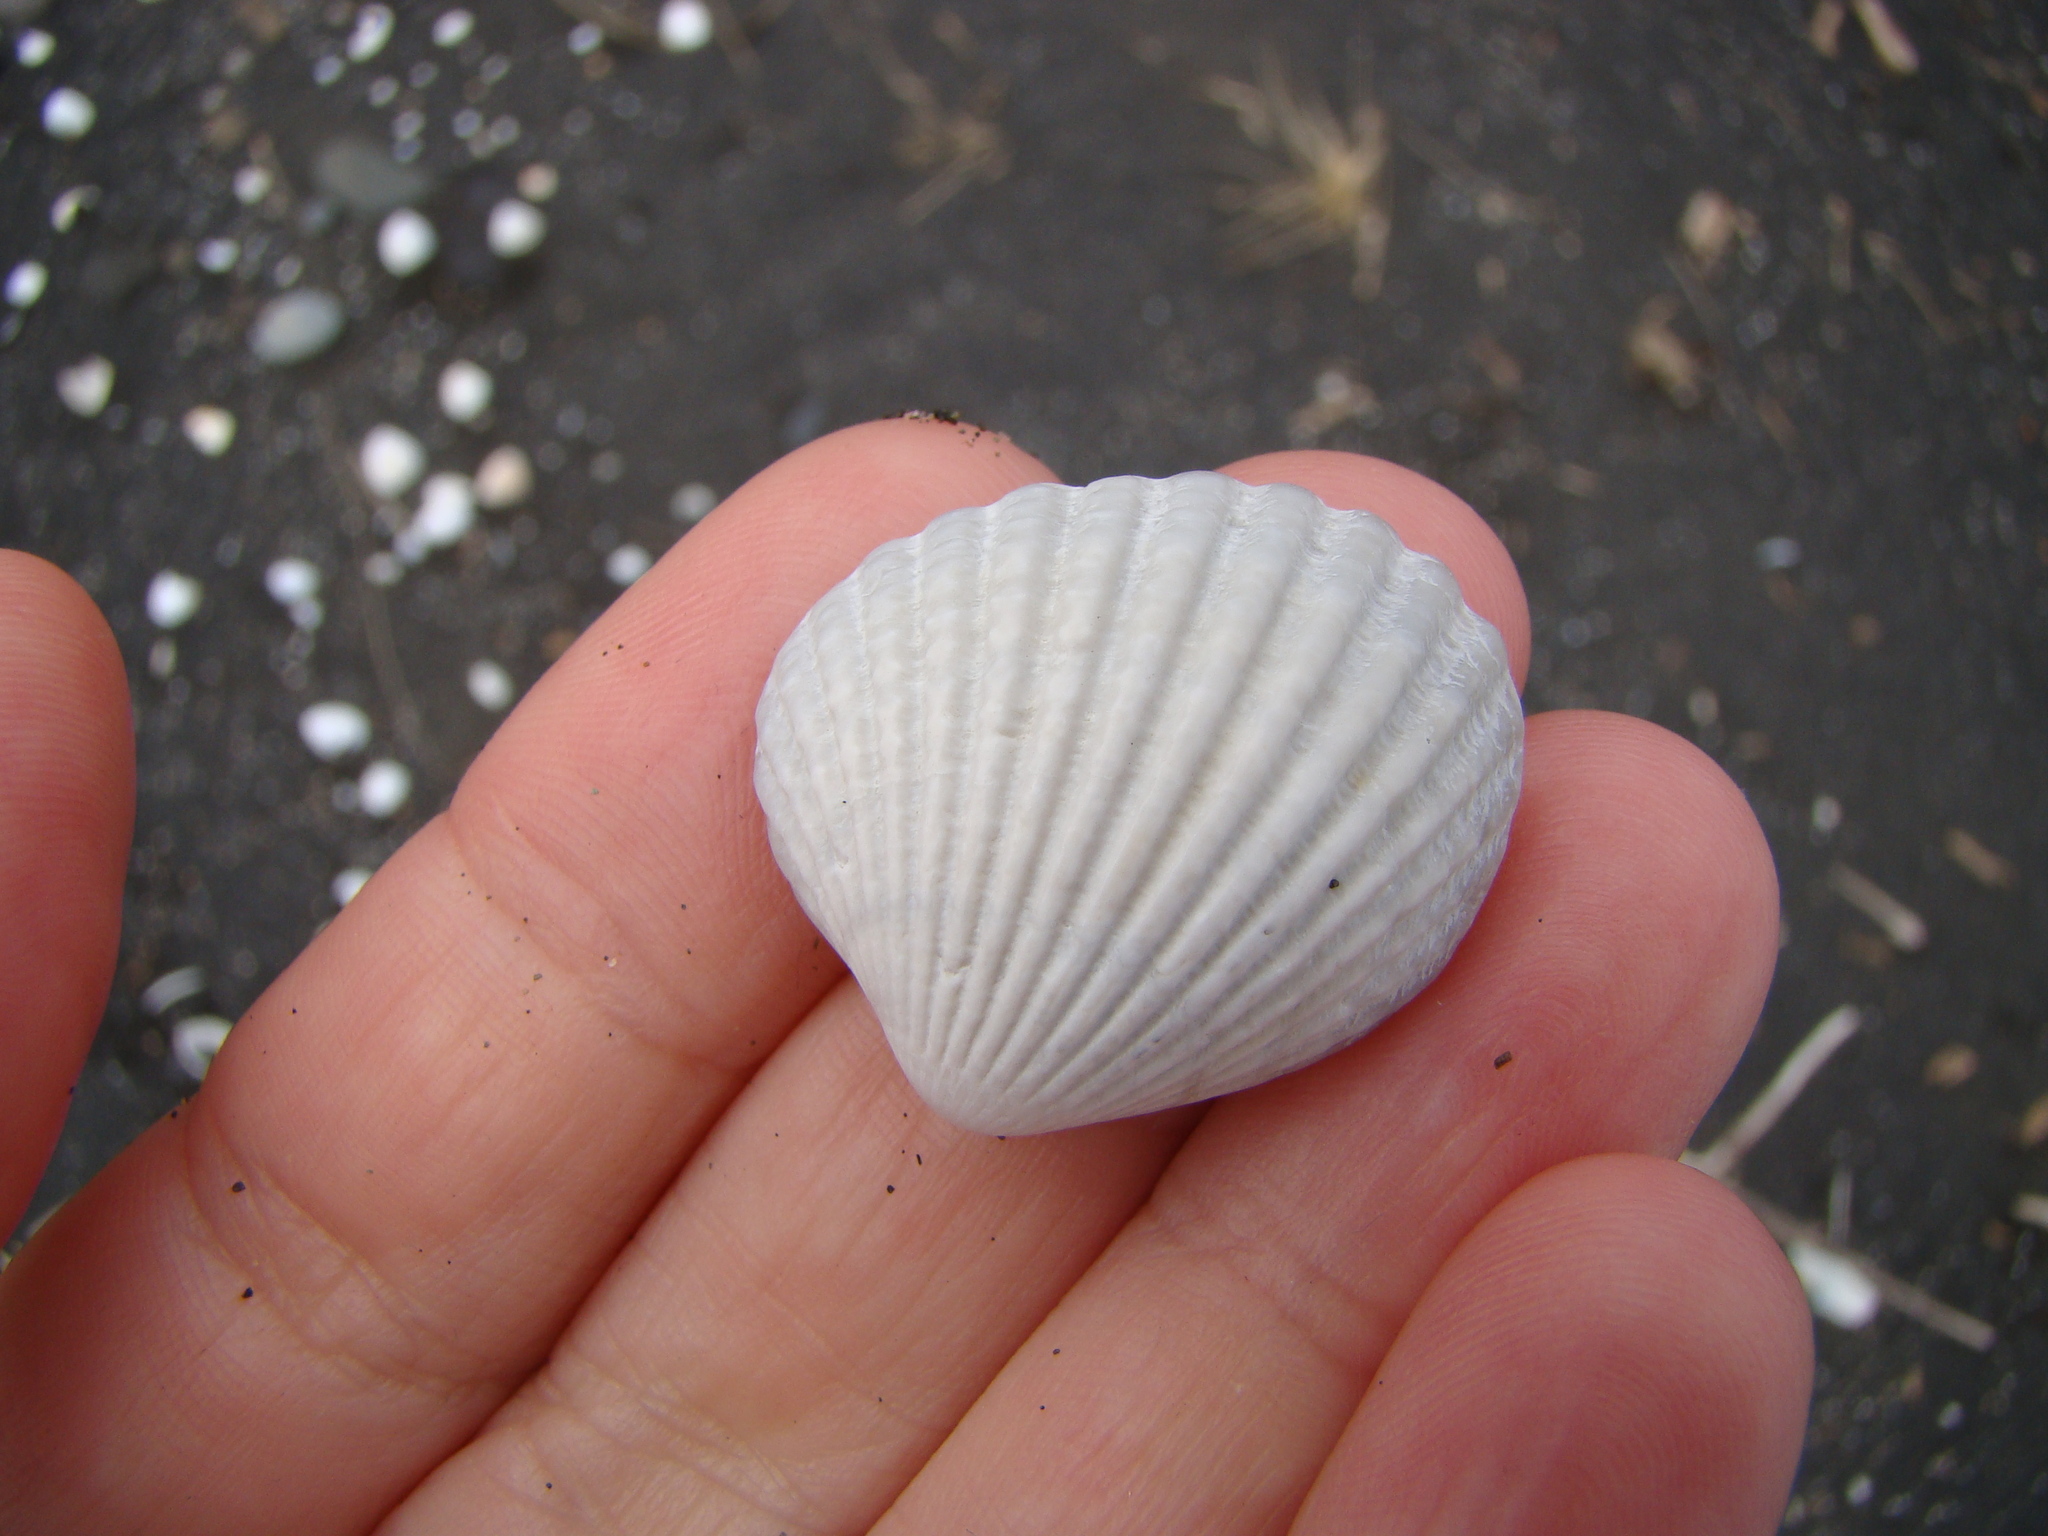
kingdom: Animalia
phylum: Mollusca
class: Bivalvia
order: Carditida
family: Carditidae
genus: Purpurocardia
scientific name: Purpurocardia purpurata
